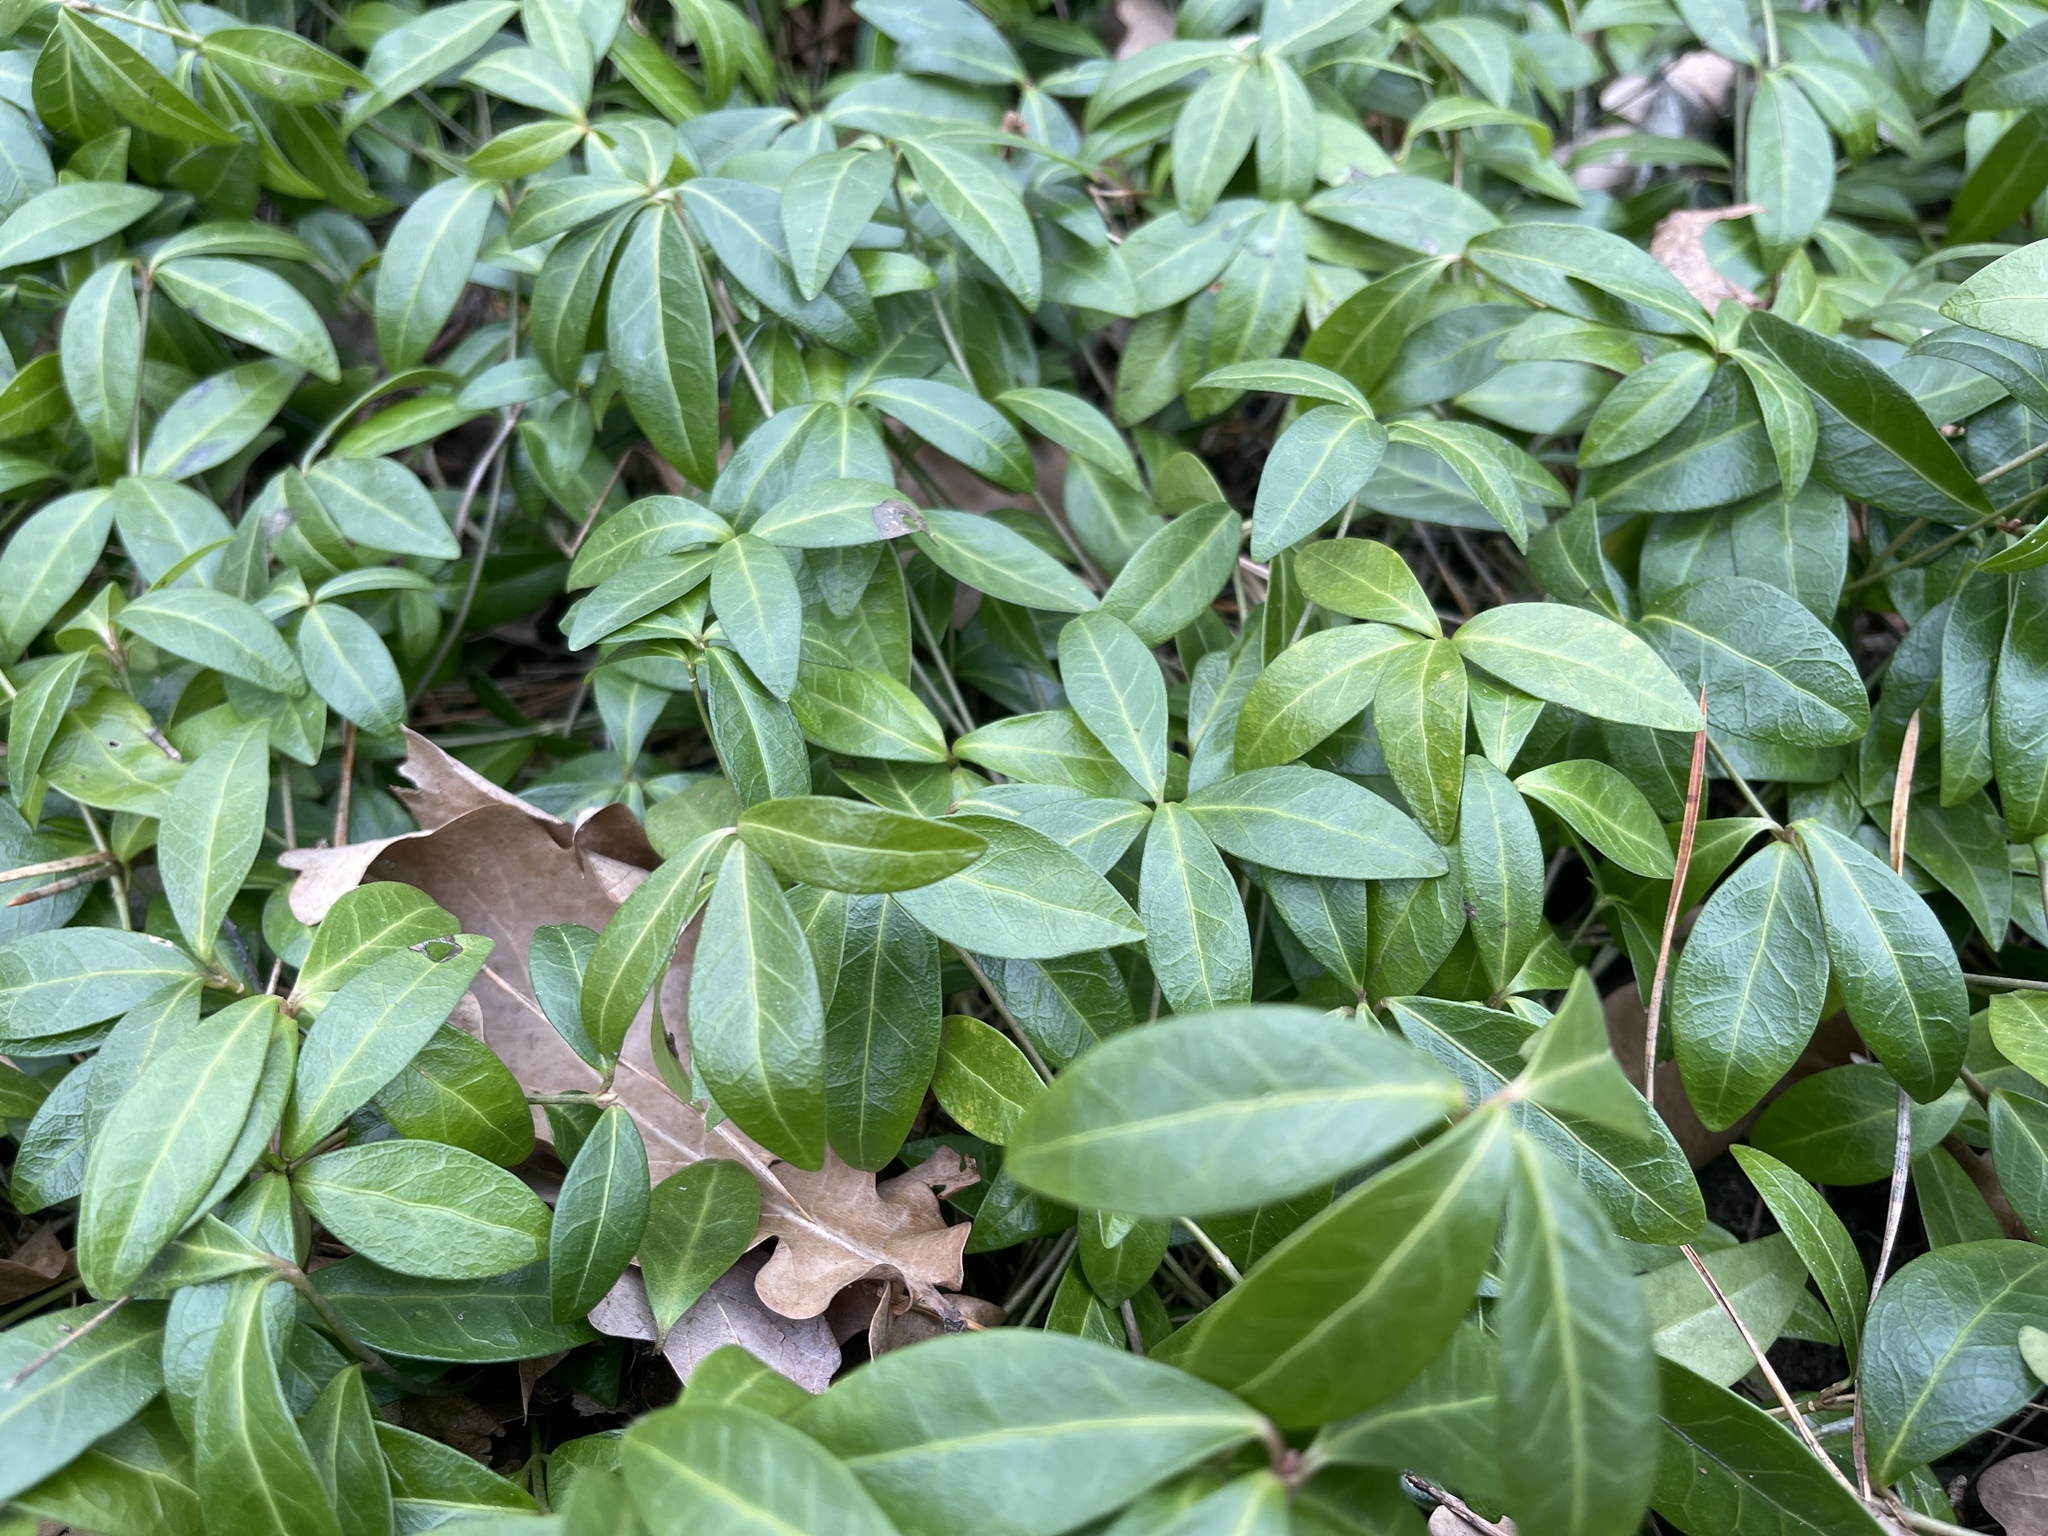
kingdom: Plantae
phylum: Tracheophyta
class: Magnoliopsida
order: Gentianales
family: Apocynaceae
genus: Vinca
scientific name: Vinca minor
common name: Lesser periwinkle
